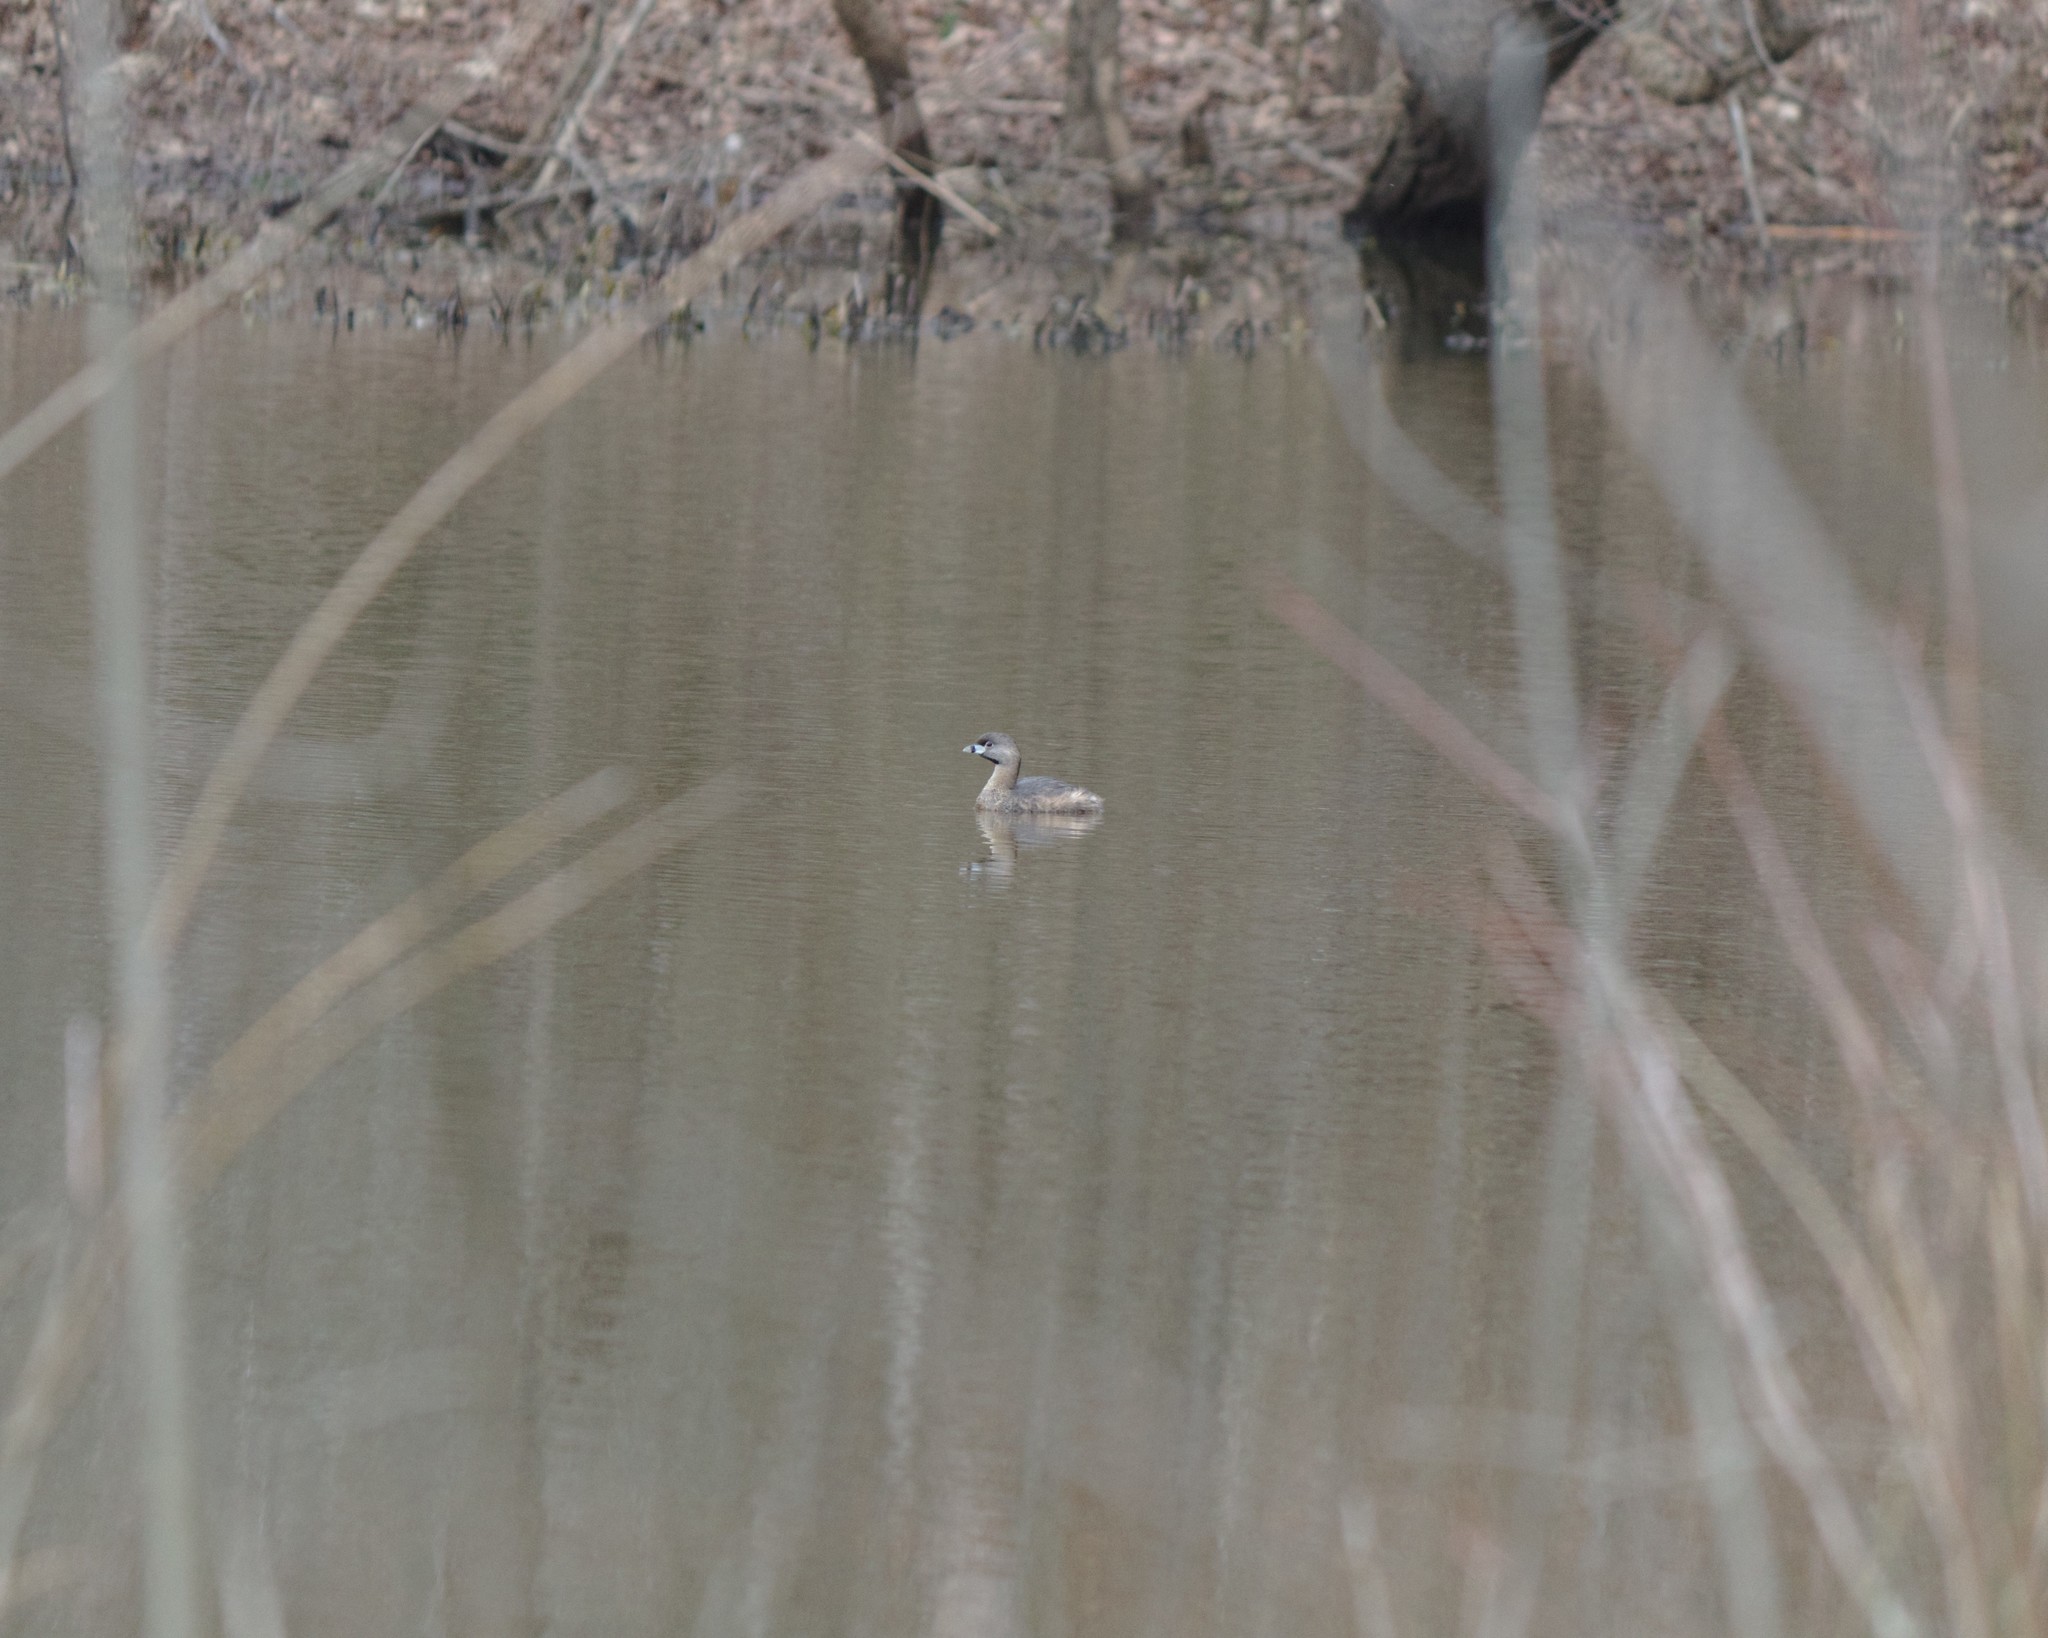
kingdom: Animalia
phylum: Chordata
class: Aves
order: Podicipediformes
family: Podicipedidae
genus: Podilymbus
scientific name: Podilymbus podiceps
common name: Pied-billed grebe
